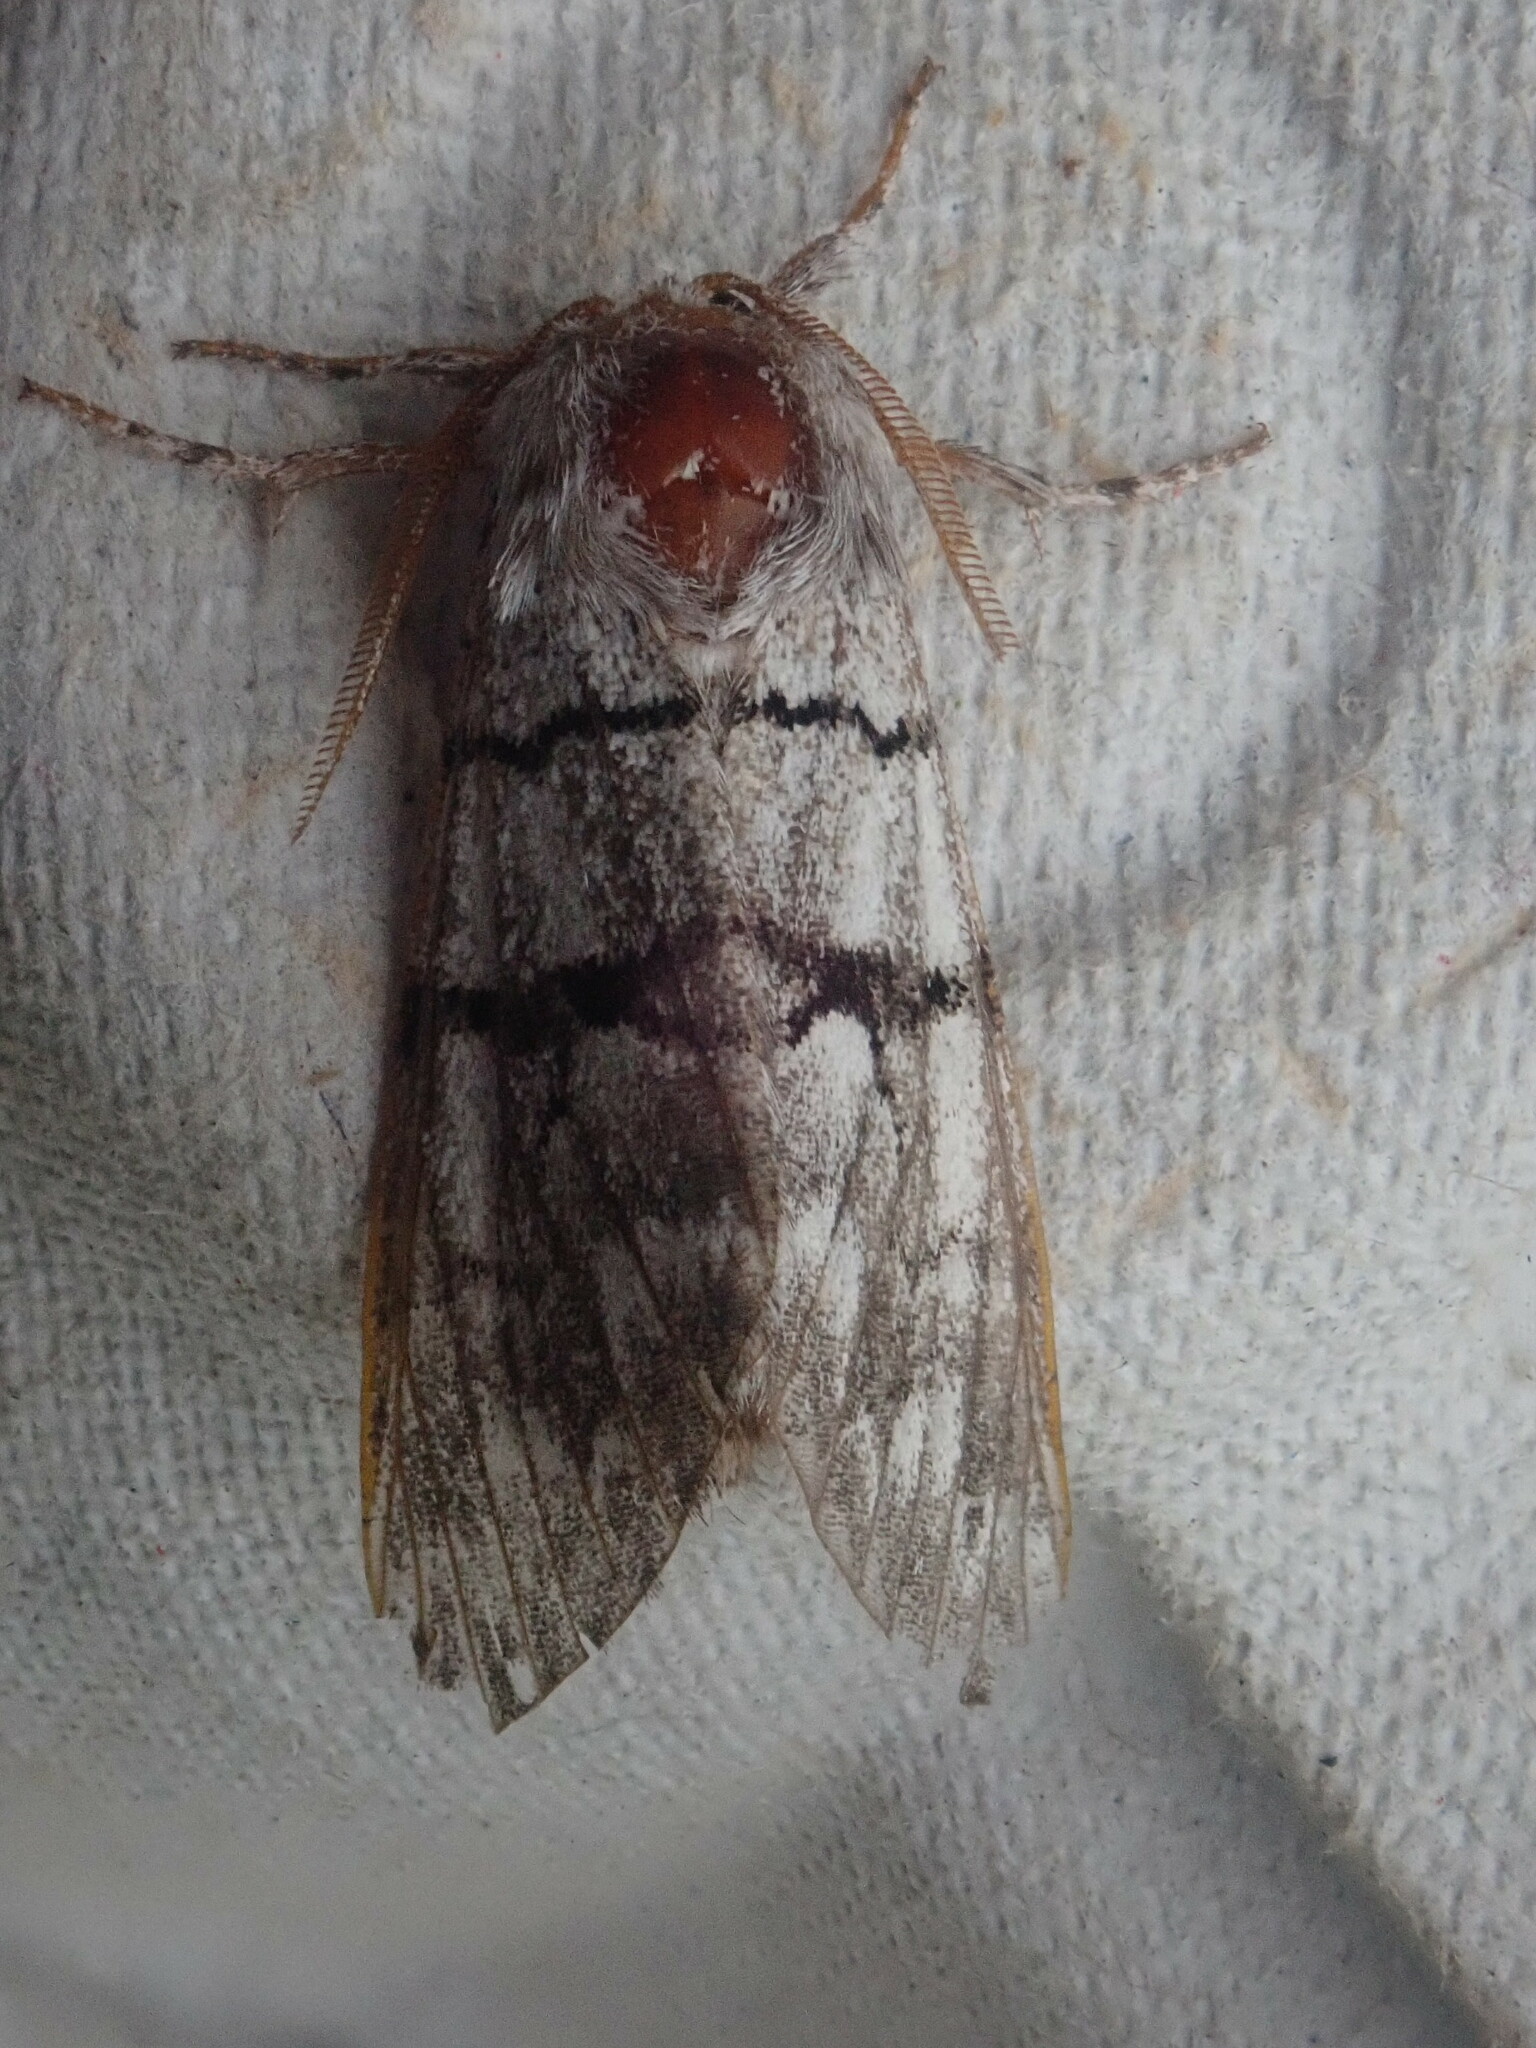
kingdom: Animalia
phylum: Arthropoda
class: Insecta
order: Lepidoptera
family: Noctuidae
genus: Panthea
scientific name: Panthea furcilla
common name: Eastern panthea moth
